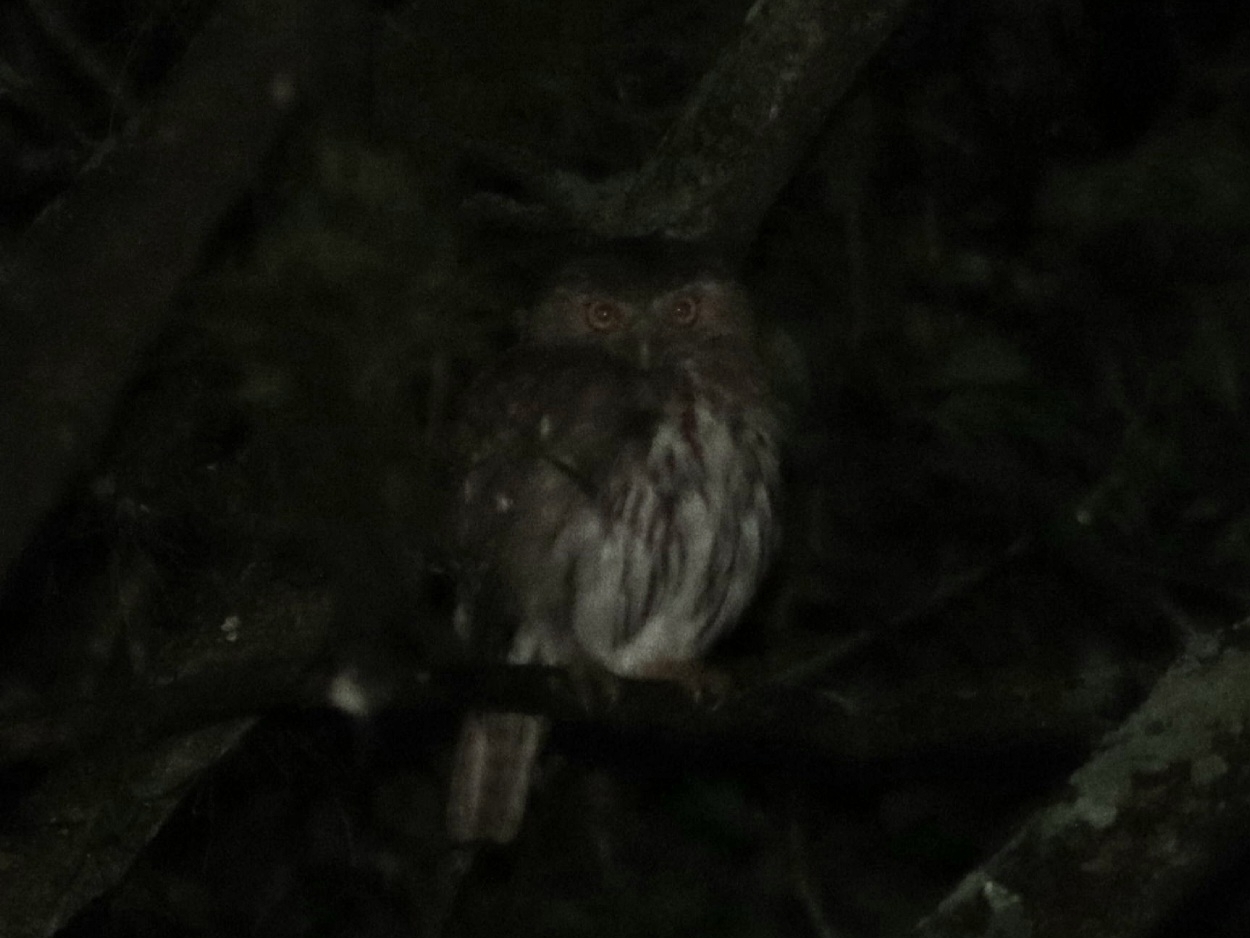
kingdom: Animalia
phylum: Chordata
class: Aves
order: Strigiformes
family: Strigidae
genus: Glaucidium
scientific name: Glaucidium brasilianum
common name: Ferruginous pygmy-owl
